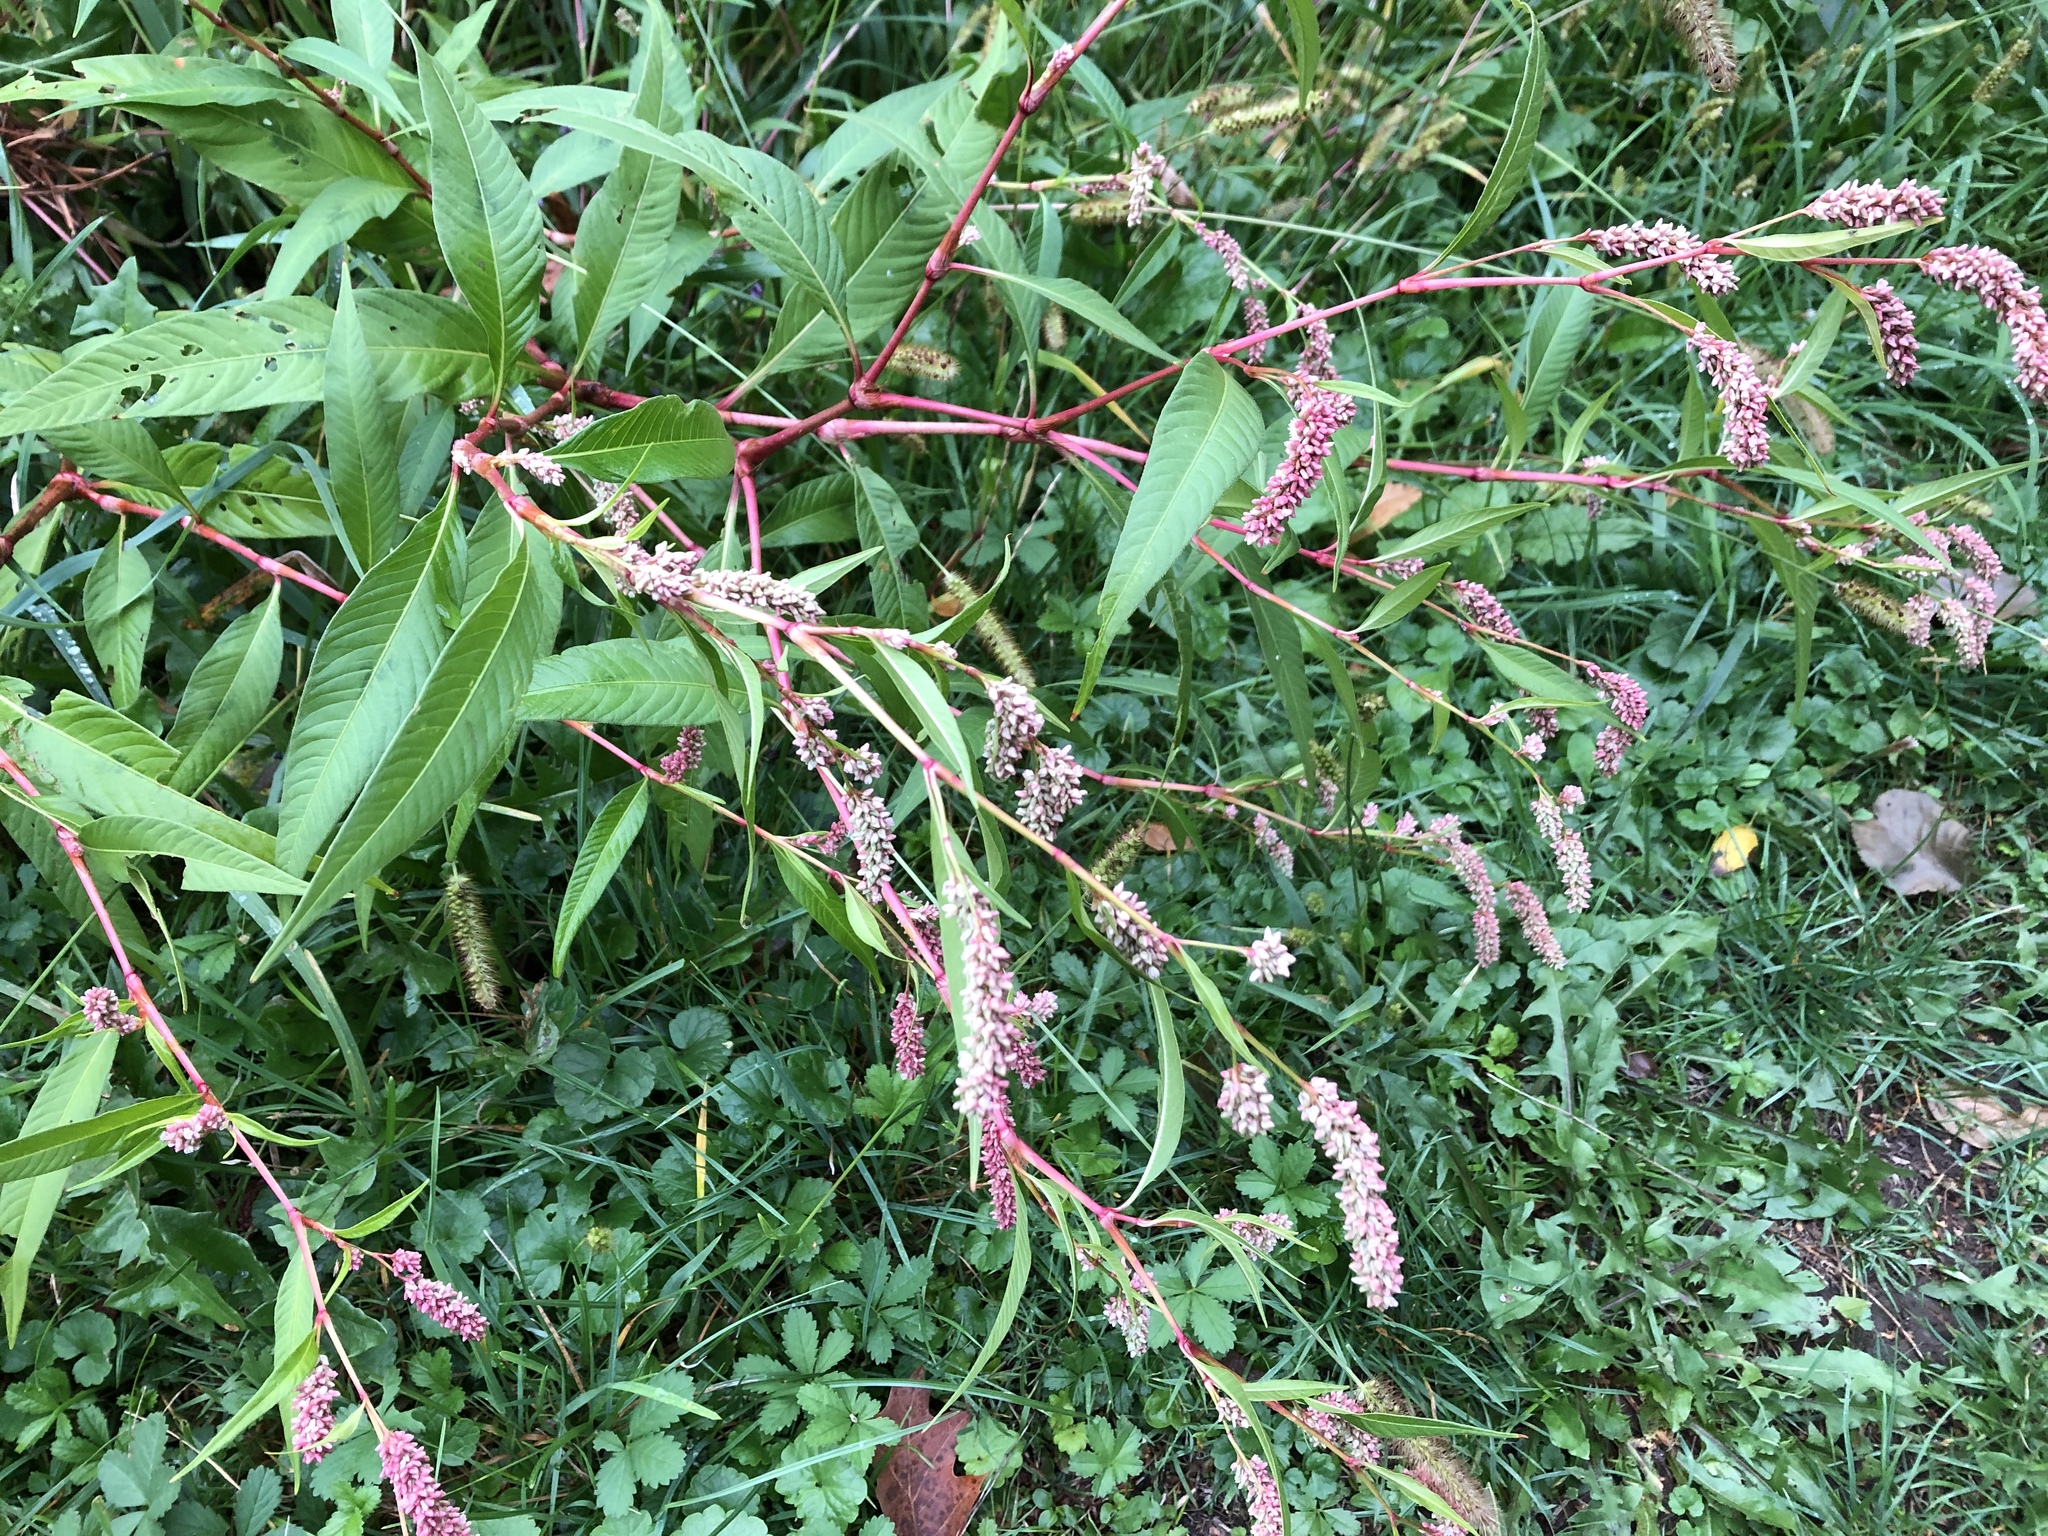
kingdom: Plantae
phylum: Tracheophyta
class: Magnoliopsida
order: Caryophyllales
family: Polygonaceae
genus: Persicaria
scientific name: Persicaria lapathifolia
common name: Curlytop knotweed
